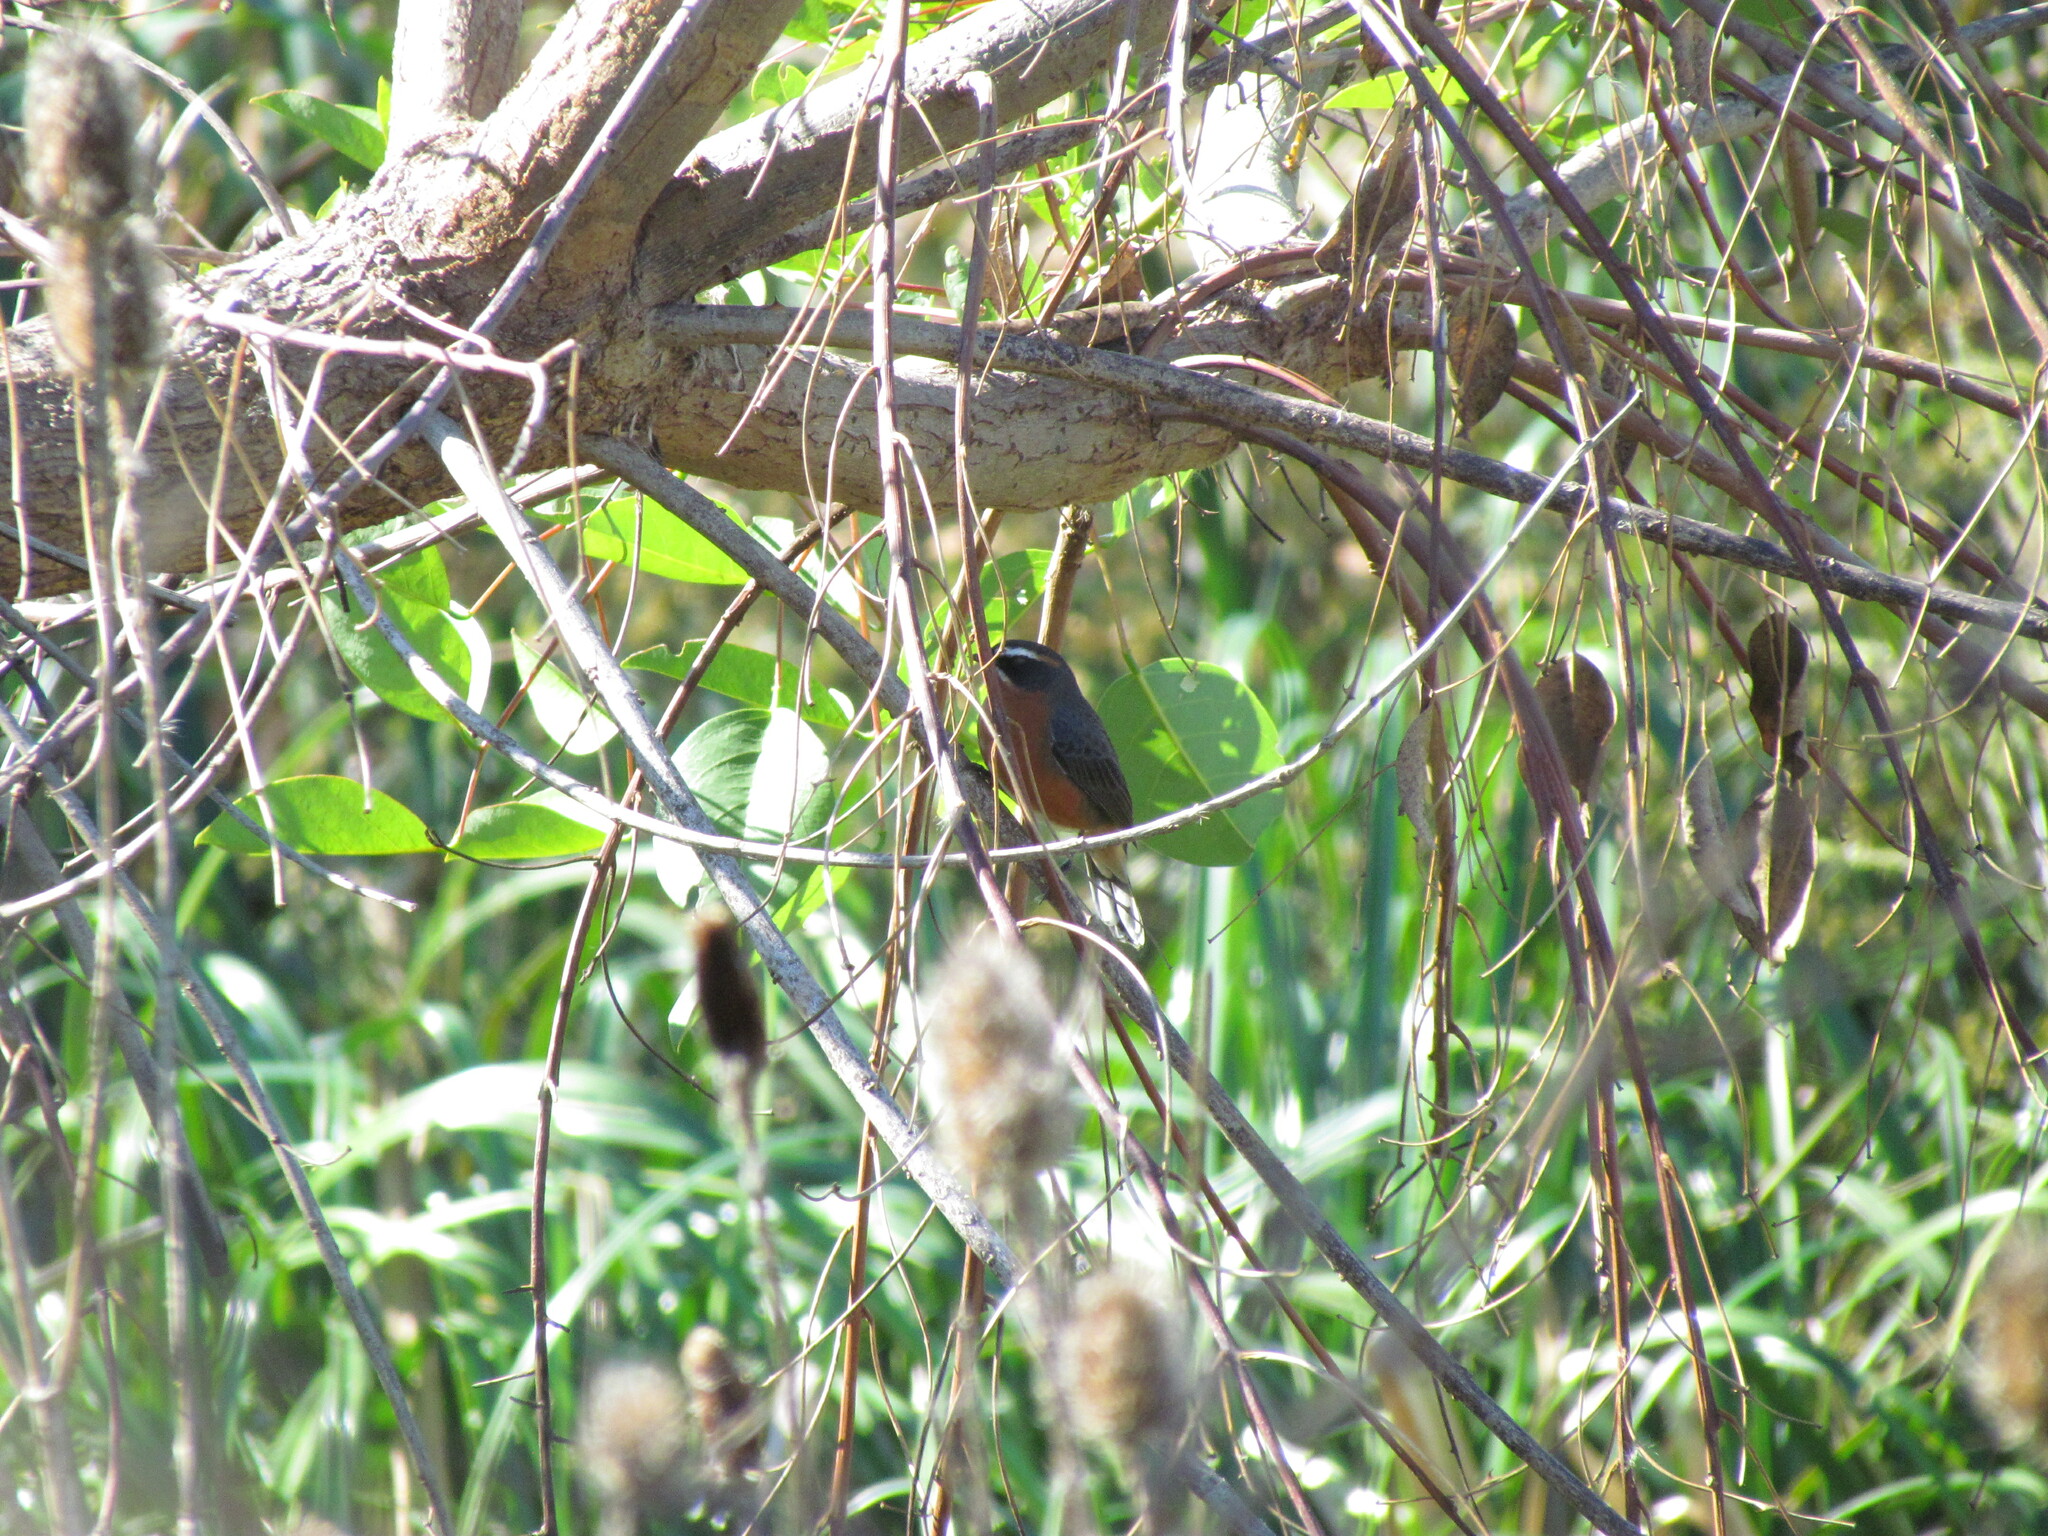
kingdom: Animalia
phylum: Chordata
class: Aves
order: Passeriformes
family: Thraupidae
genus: Poospiza
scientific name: Poospiza nigrorufa
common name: Black-and-rufous warbling finch
